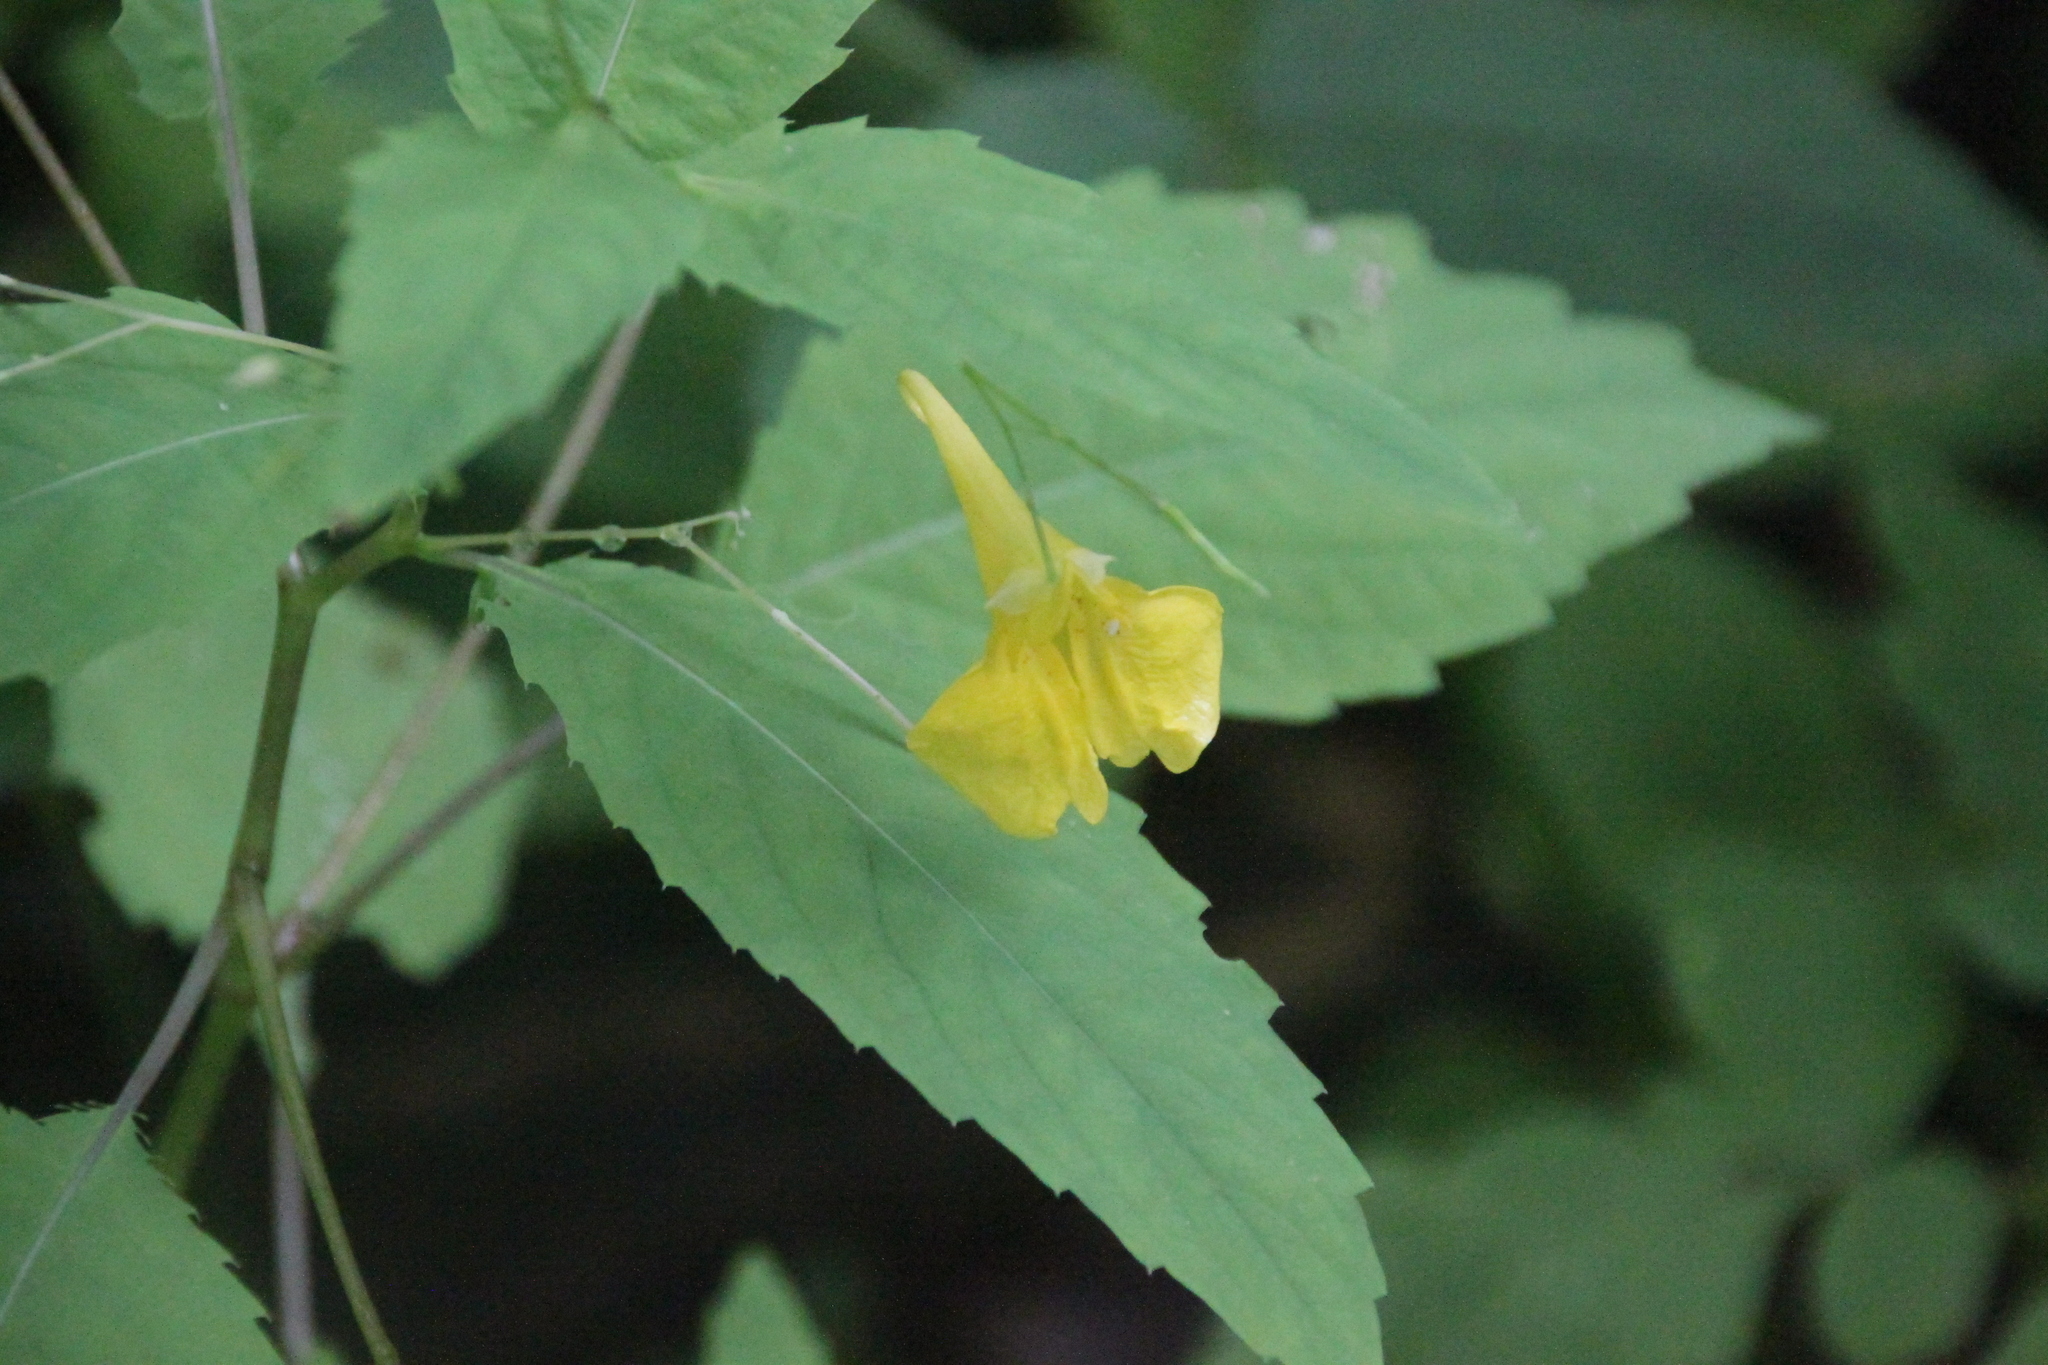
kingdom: Plantae
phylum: Tracheophyta
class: Magnoliopsida
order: Ericales
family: Balsaminaceae
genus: Impatiens
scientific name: Impatiens noli-tangere
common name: Touch-me-not balsam
